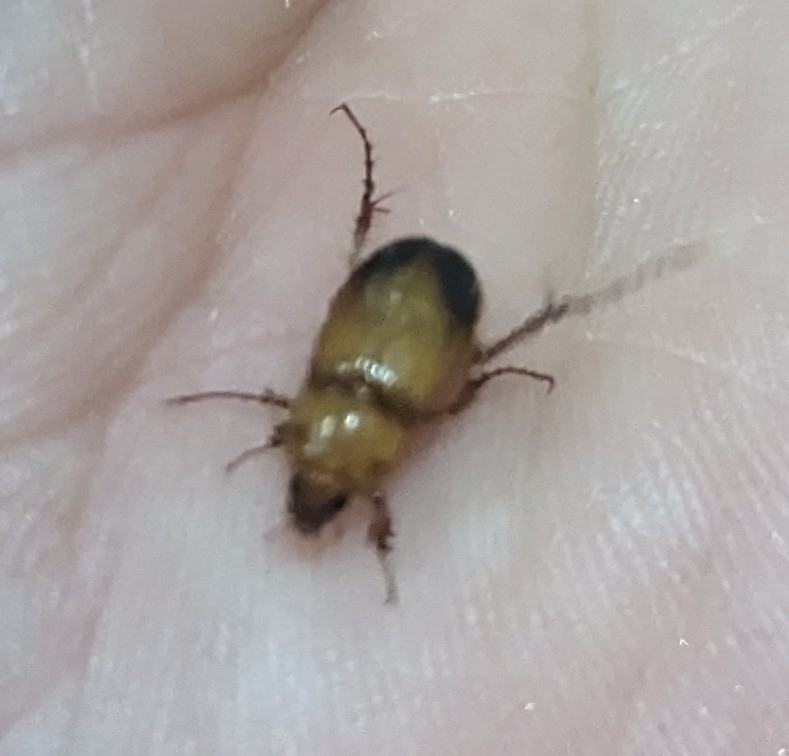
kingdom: Animalia
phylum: Arthropoda
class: Insecta
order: Coleoptera
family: Scarabaeidae
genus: Phyllotocus
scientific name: Phyllotocus macleayi
